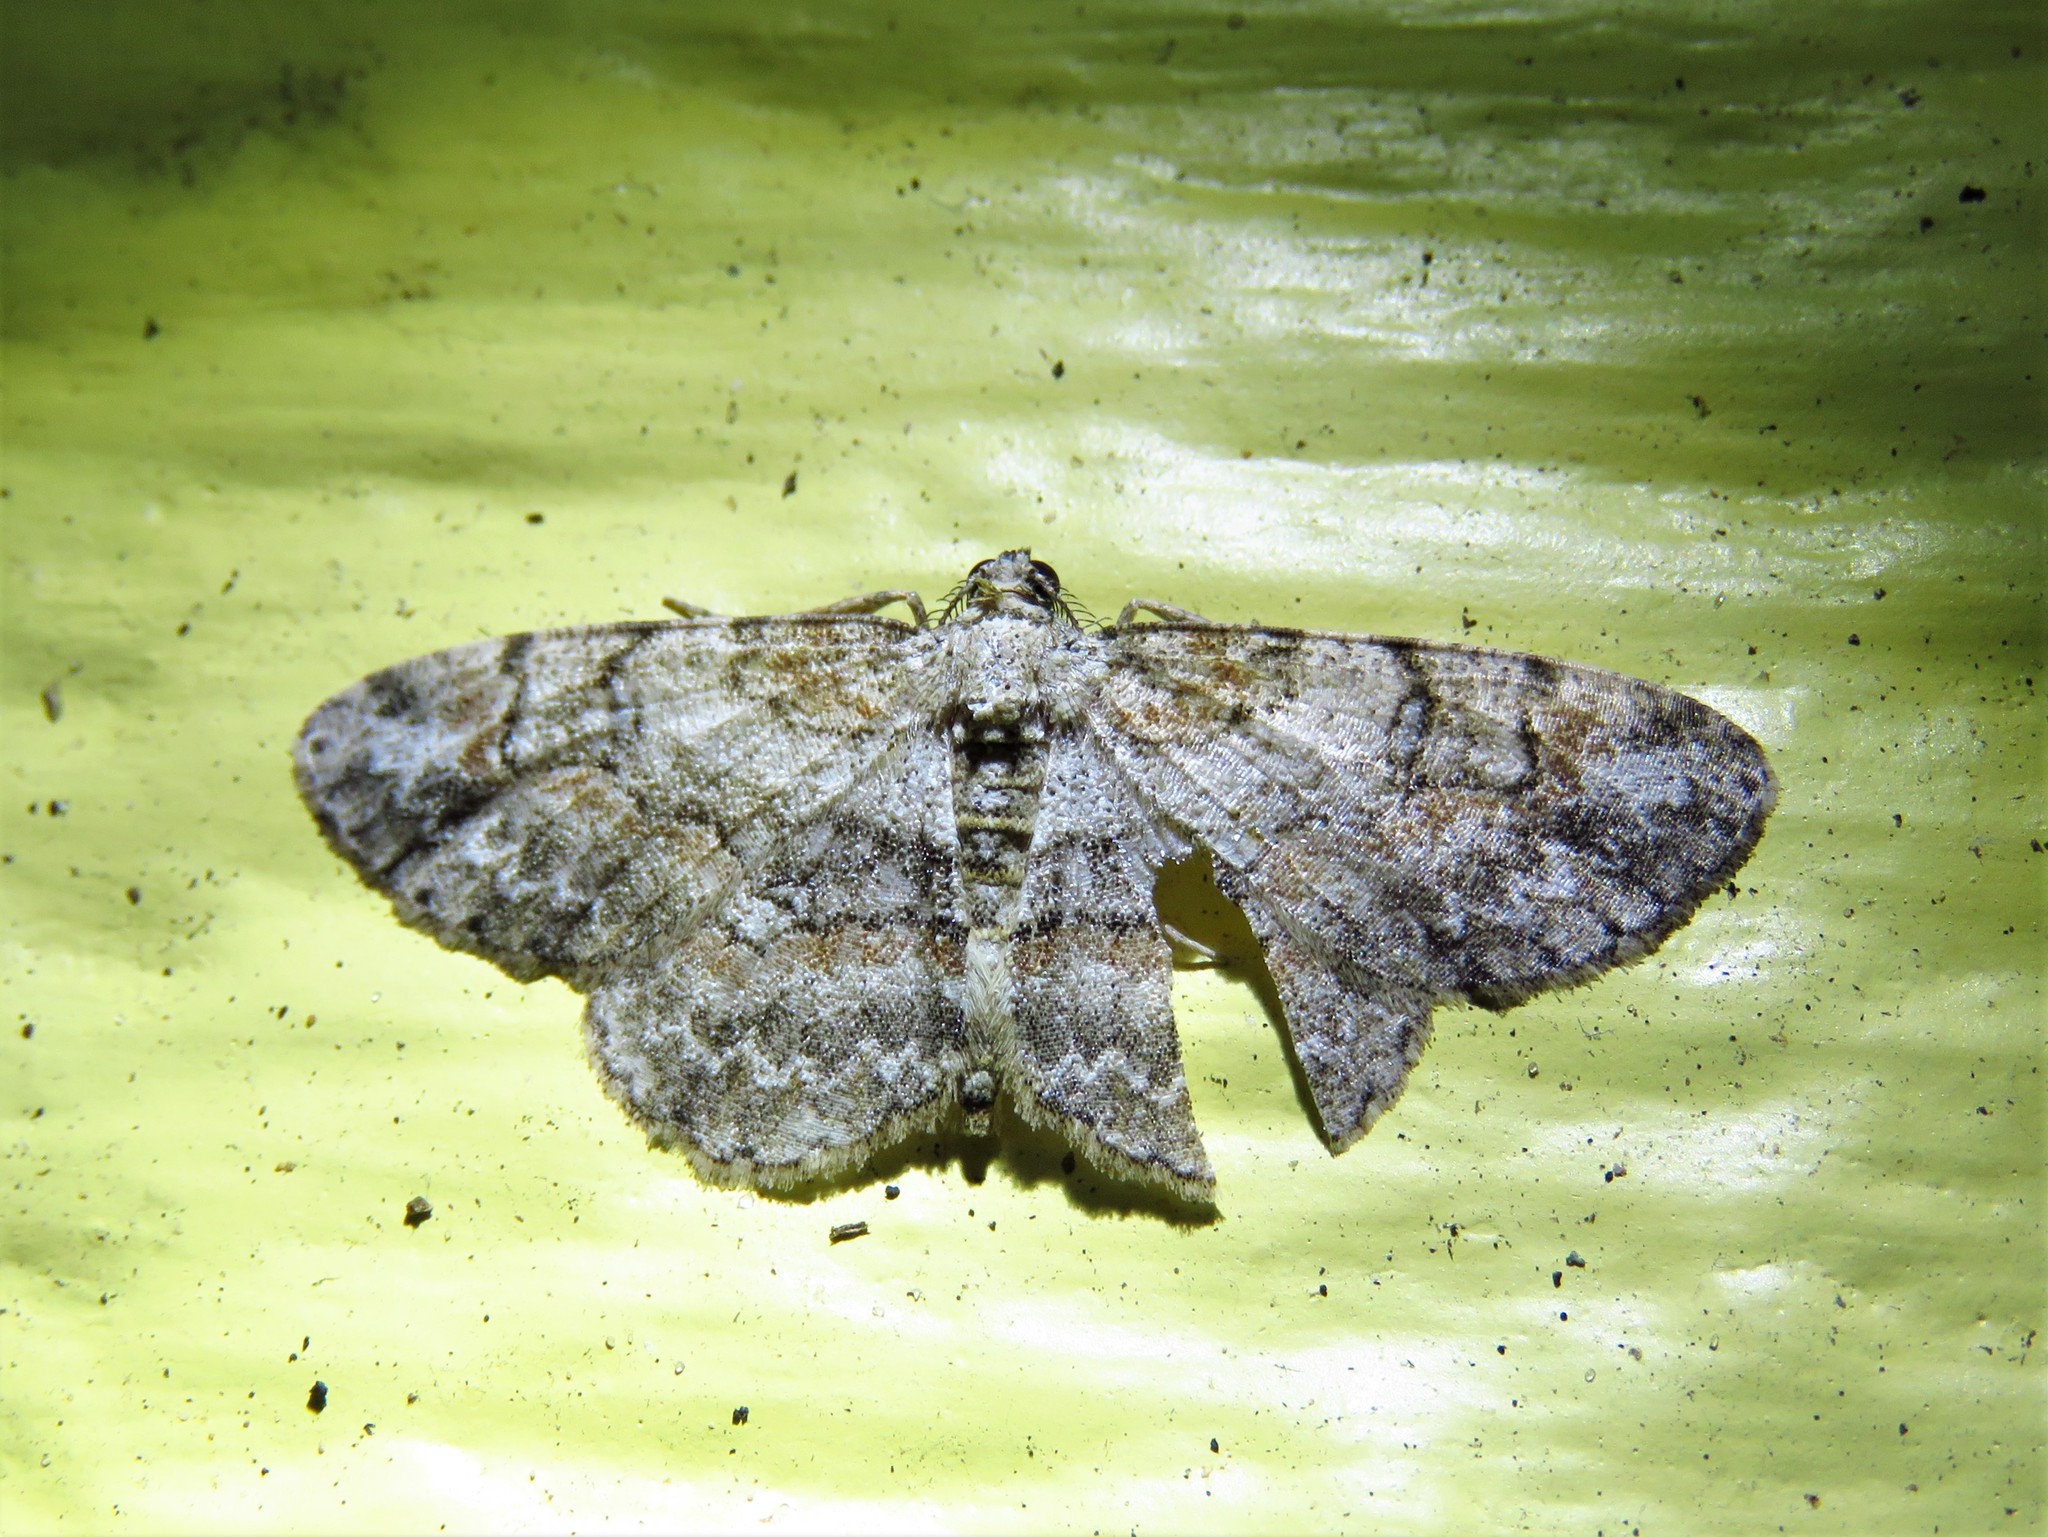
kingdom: Animalia
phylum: Arthropoda
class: Insecta
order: Lepidoptera
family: Geometridae
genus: Iridopsis
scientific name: Iridopsis ephyraria
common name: Pale-winged gray
